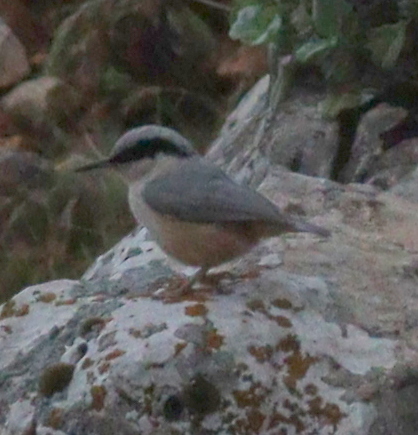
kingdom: Animalia
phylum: Chordata
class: Aves
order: Passeriformes
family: Sittidae
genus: Sitta
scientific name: Sitta tephronota
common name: Eastern rock nuthatch
